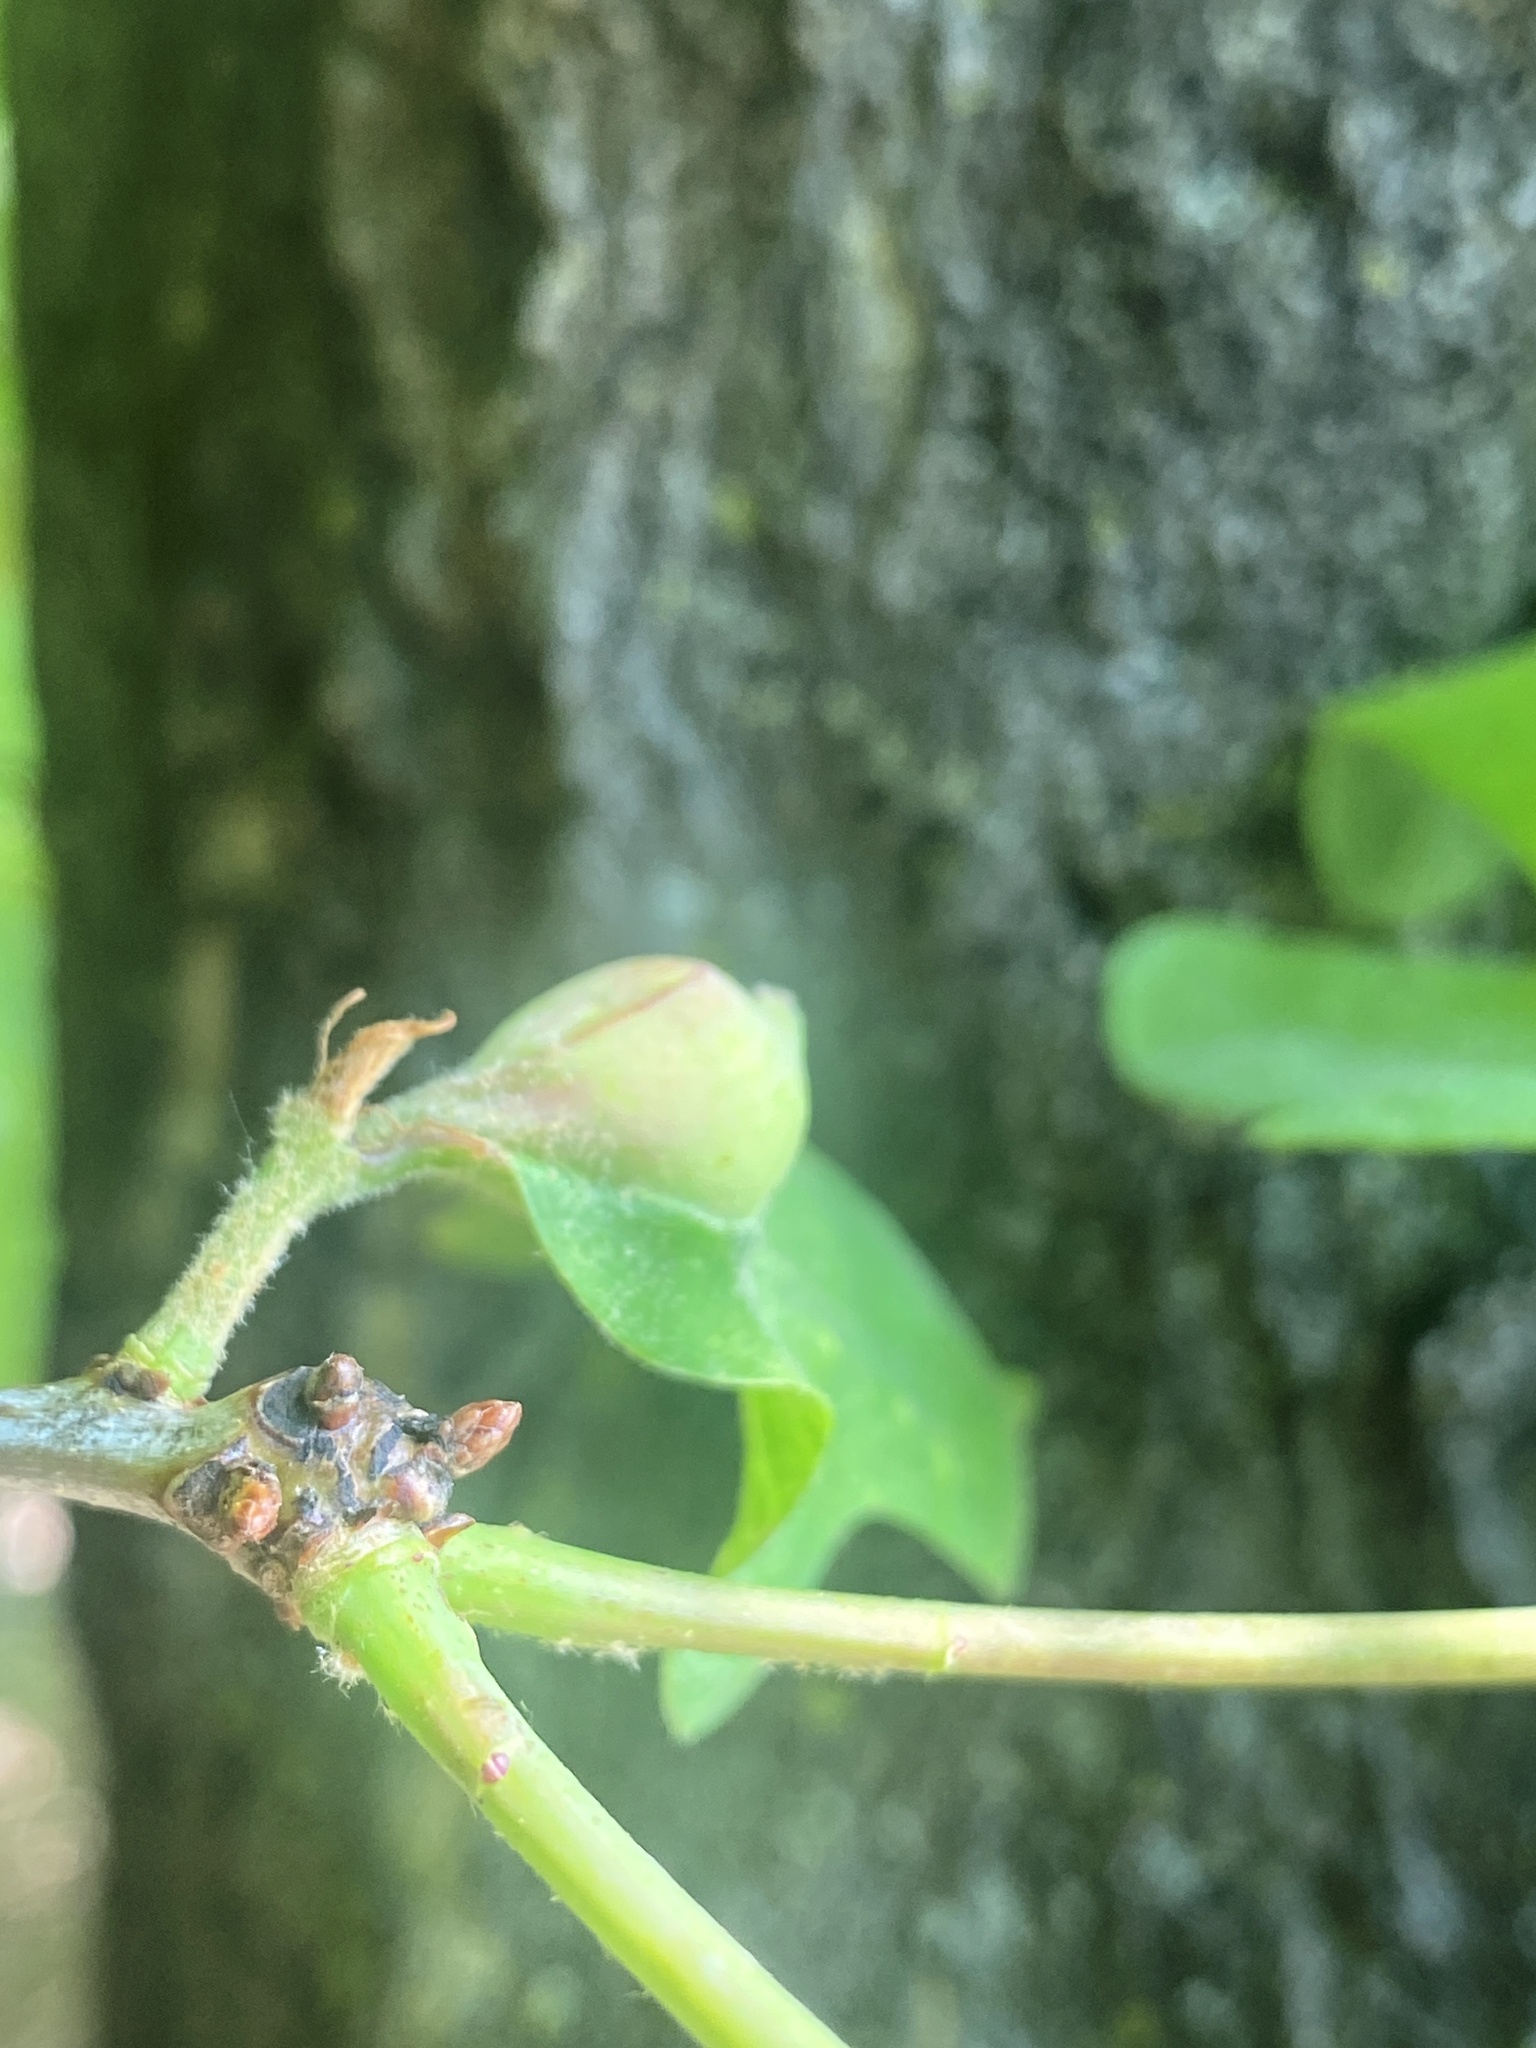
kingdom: Animalia
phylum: Arthropoda
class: Insecta
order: Hymenoptera
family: Cynipidae
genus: Andricus
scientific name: Andricus
